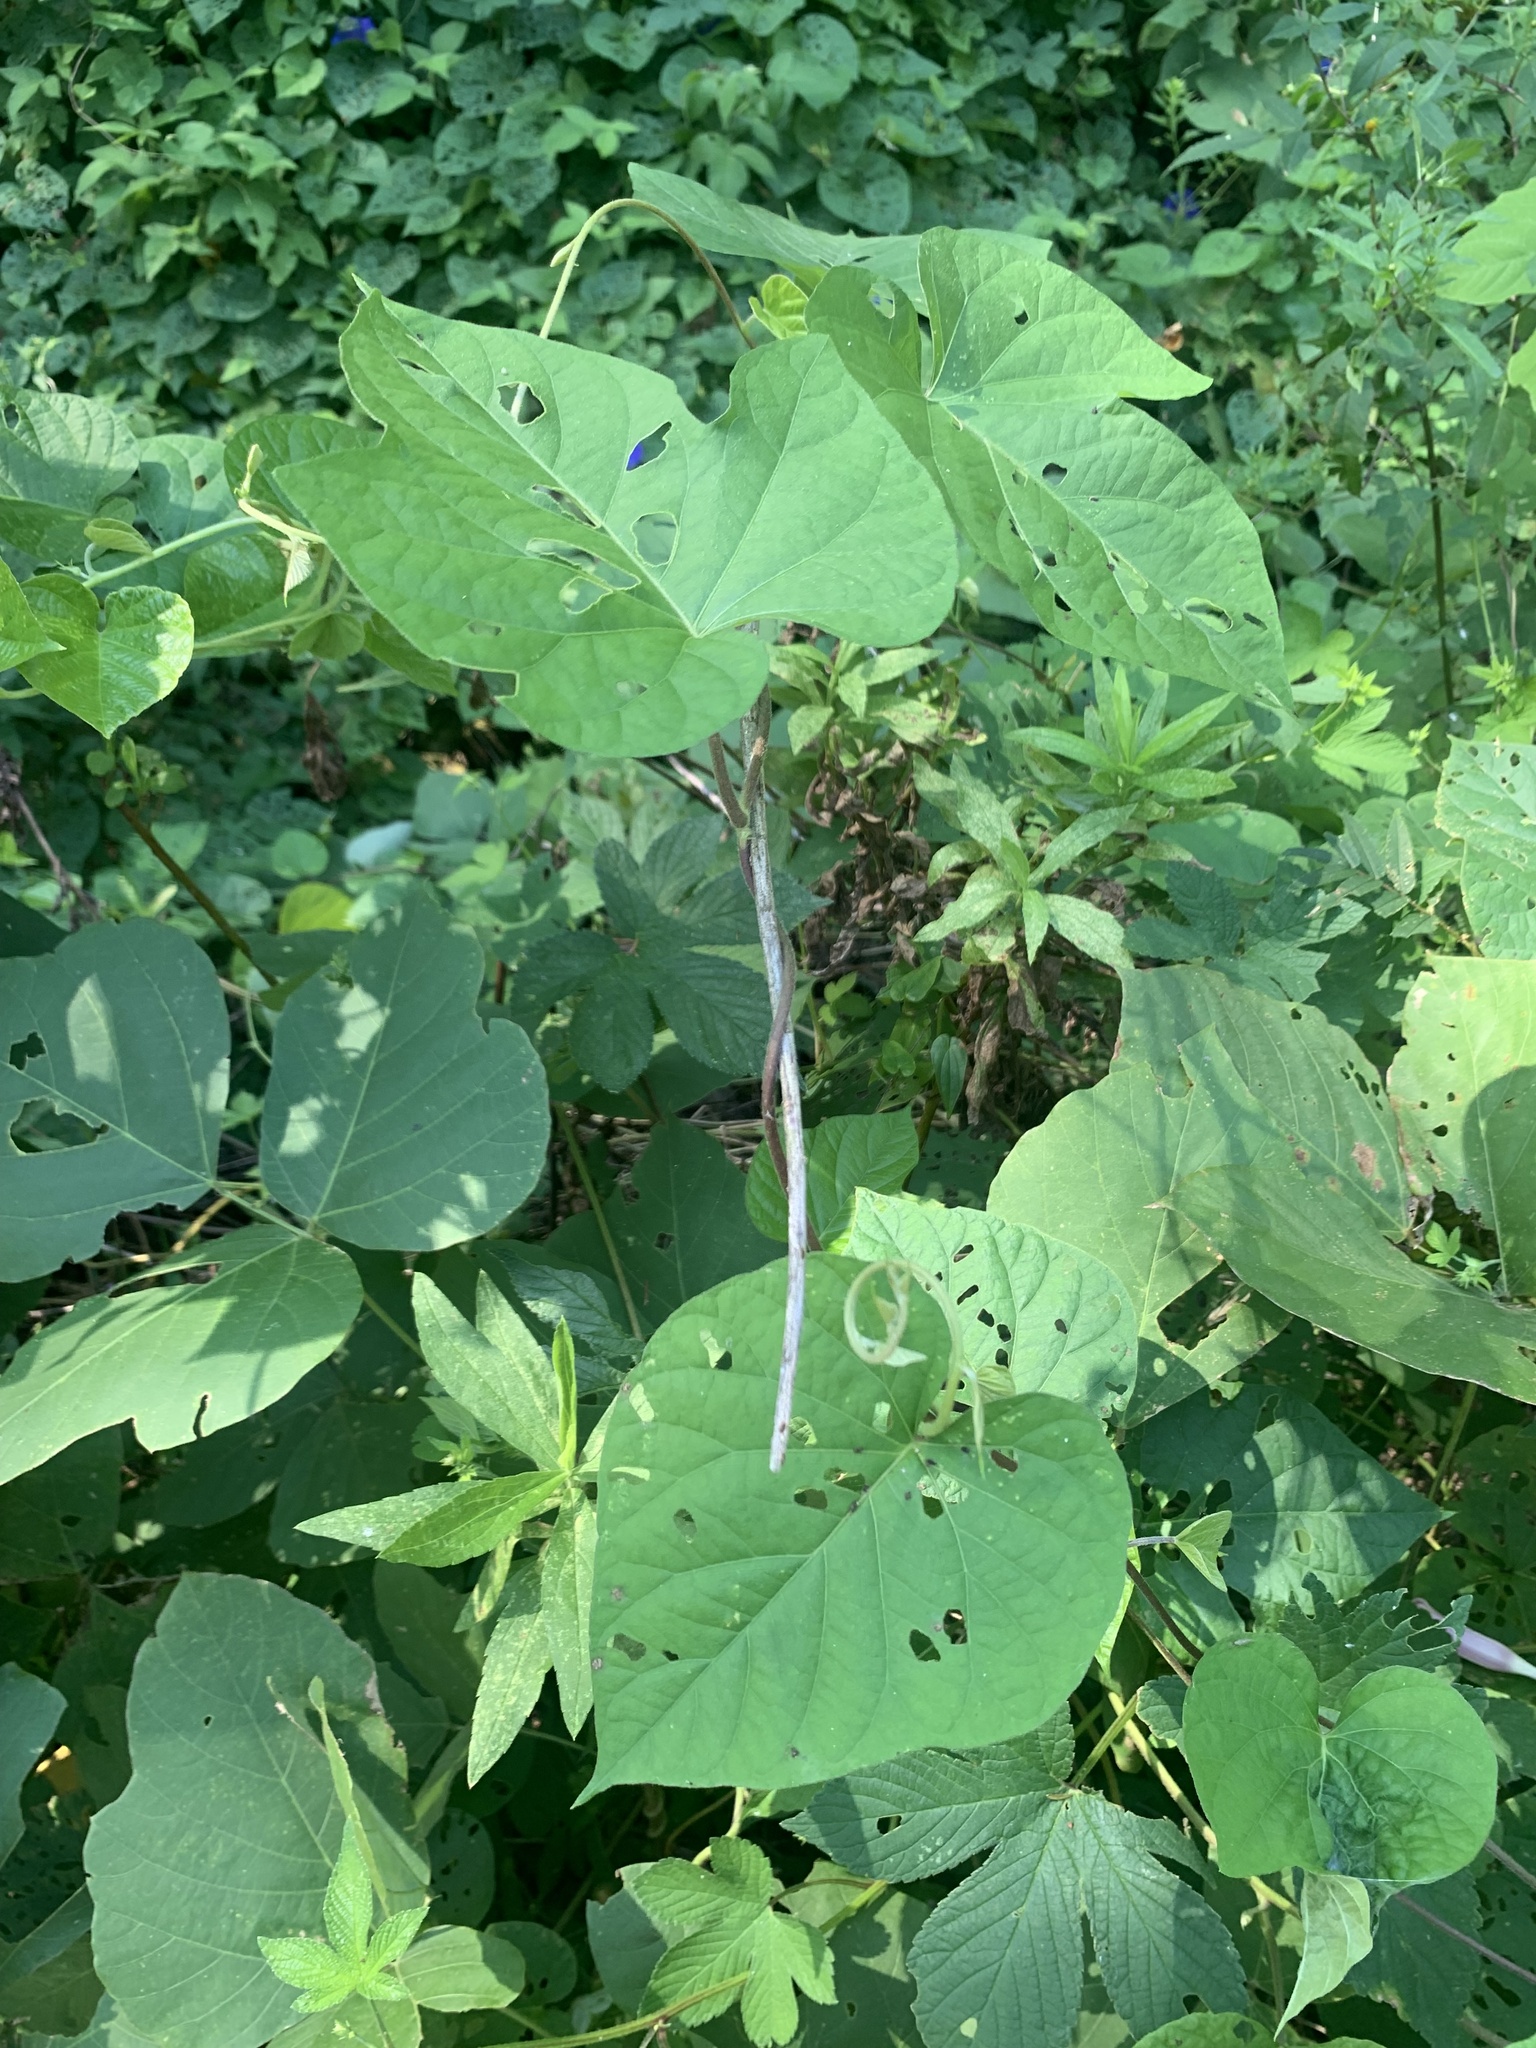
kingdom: Plantae
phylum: Tracheophyta
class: Magnoliopsida
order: Solanales
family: Convolvulaceae
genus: Ipomoea
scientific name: Ipomoea indica
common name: Blue dawnflower
